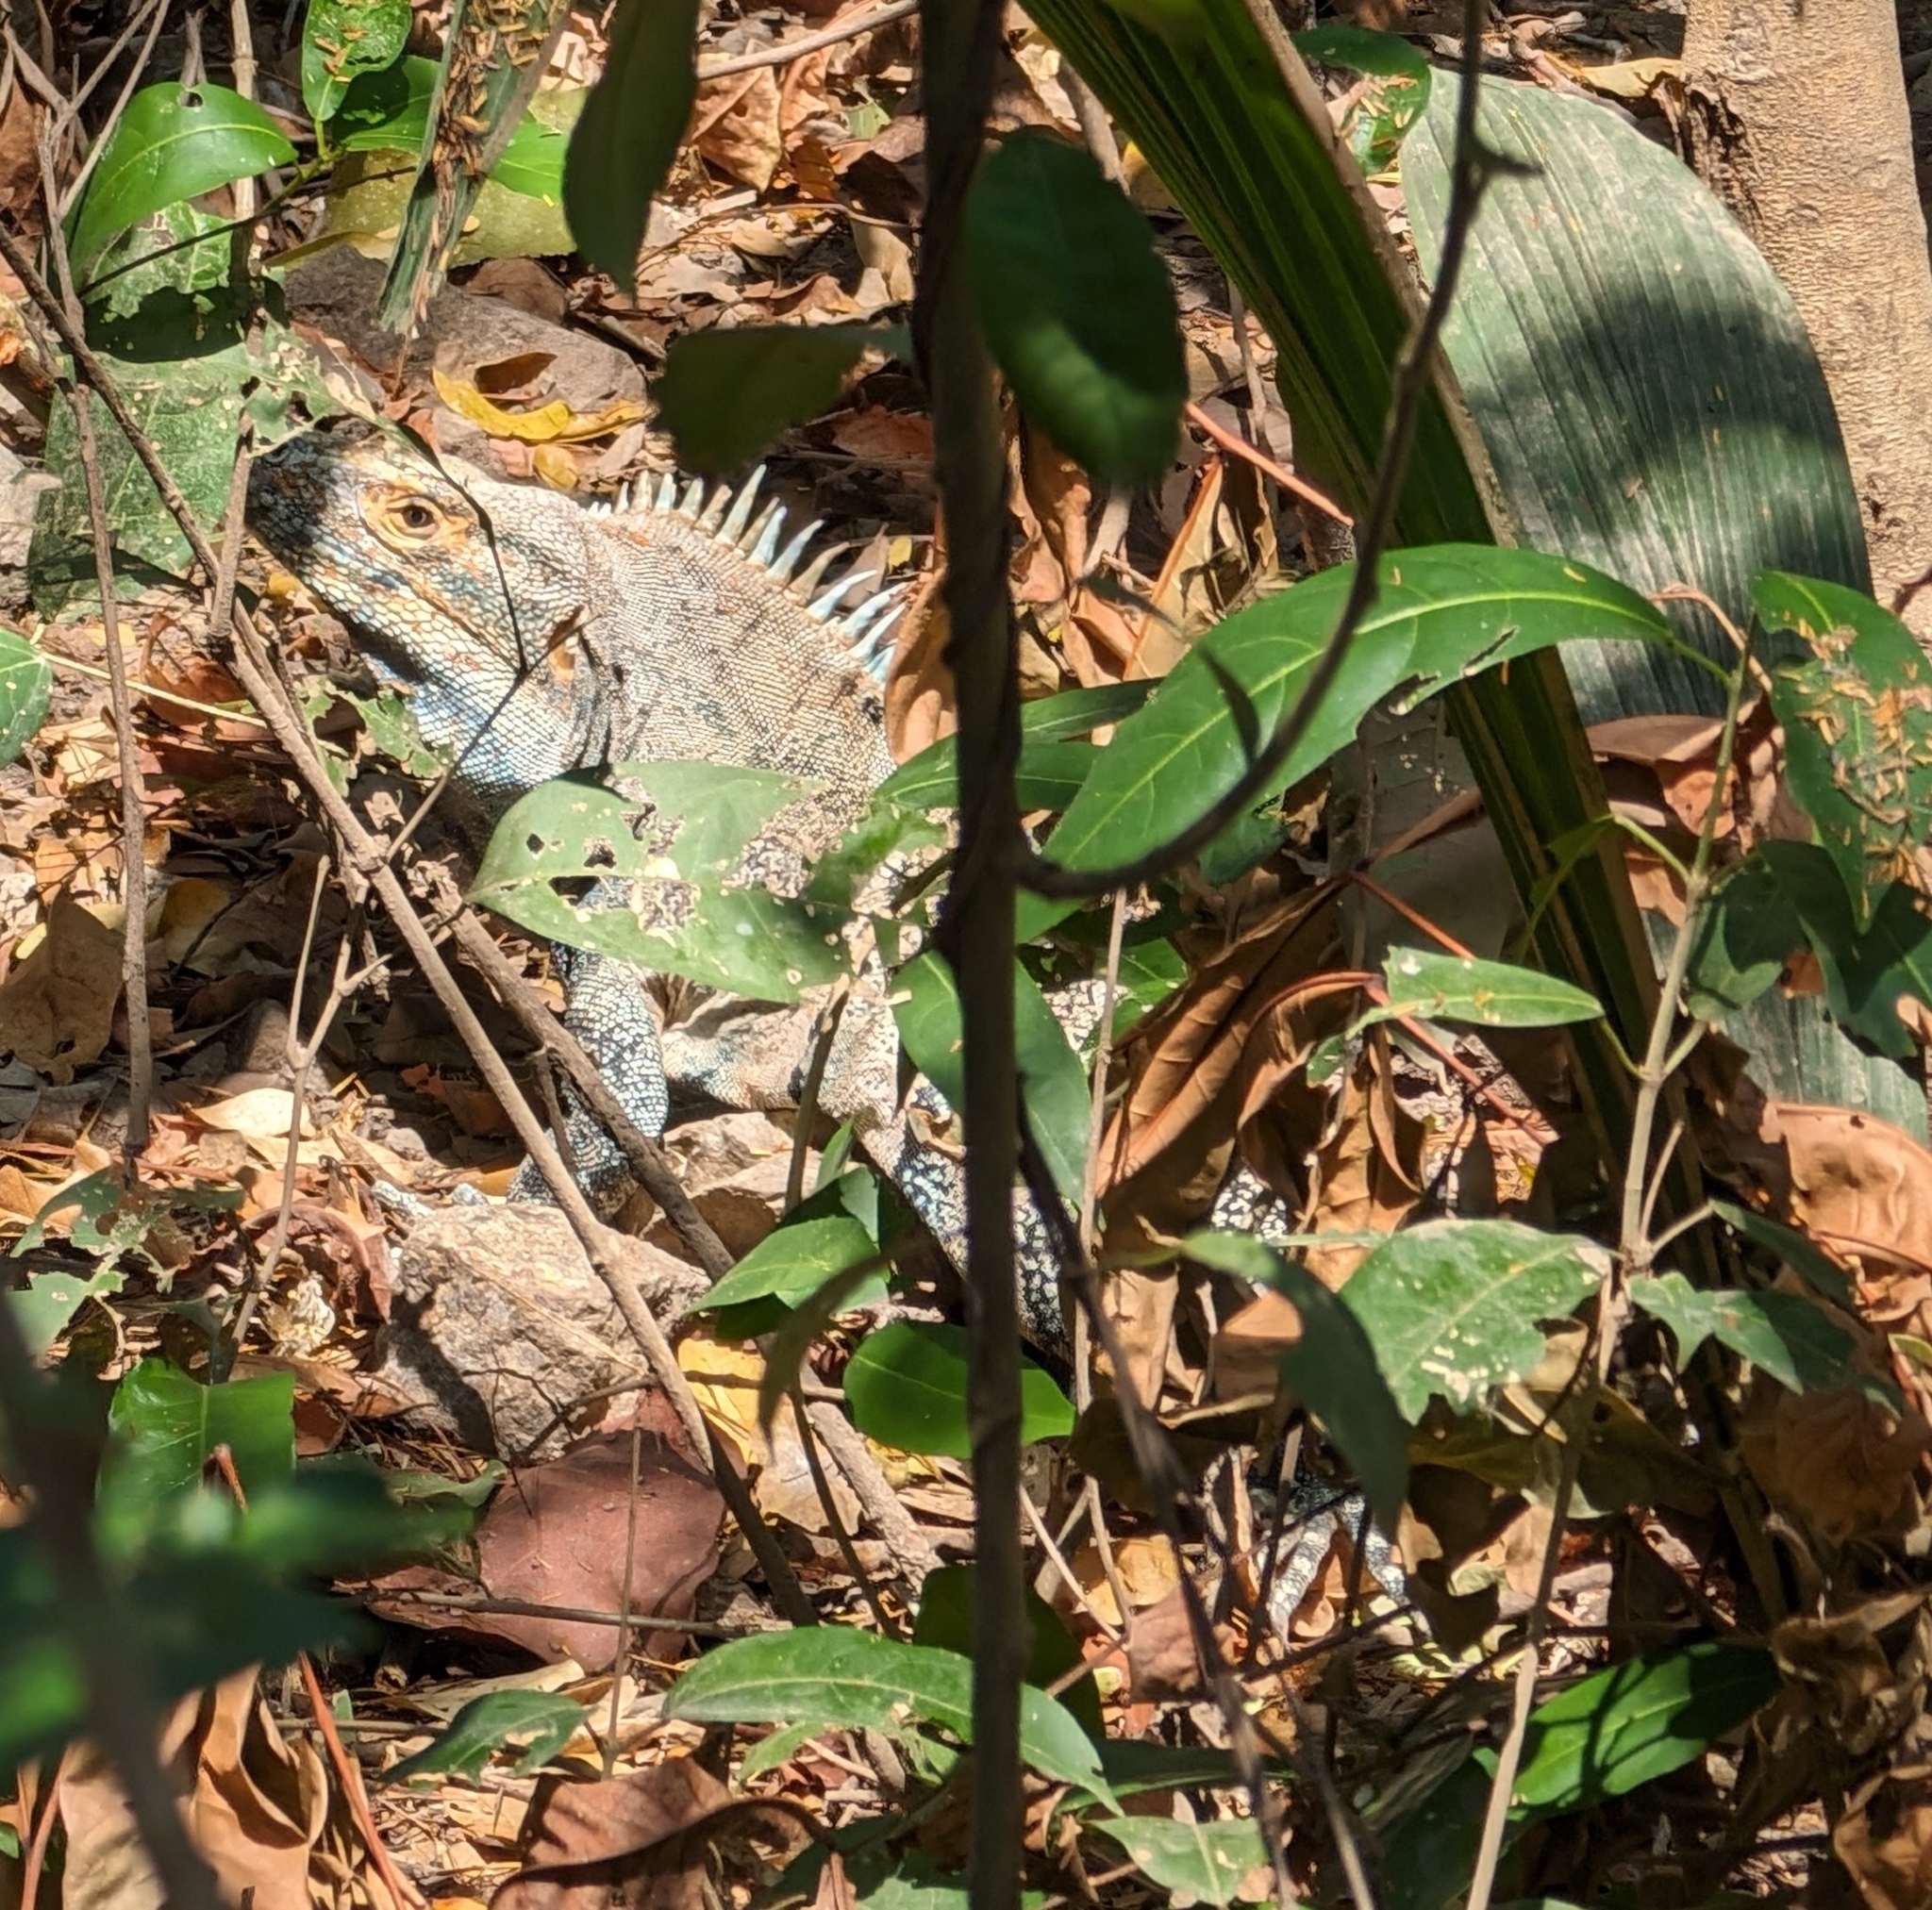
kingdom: Animalia
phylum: Chordata
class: Squamata
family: Iguanidae
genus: Ctenosaura
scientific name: Ctenosaura similis
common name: Black spiny-tailed iguana
